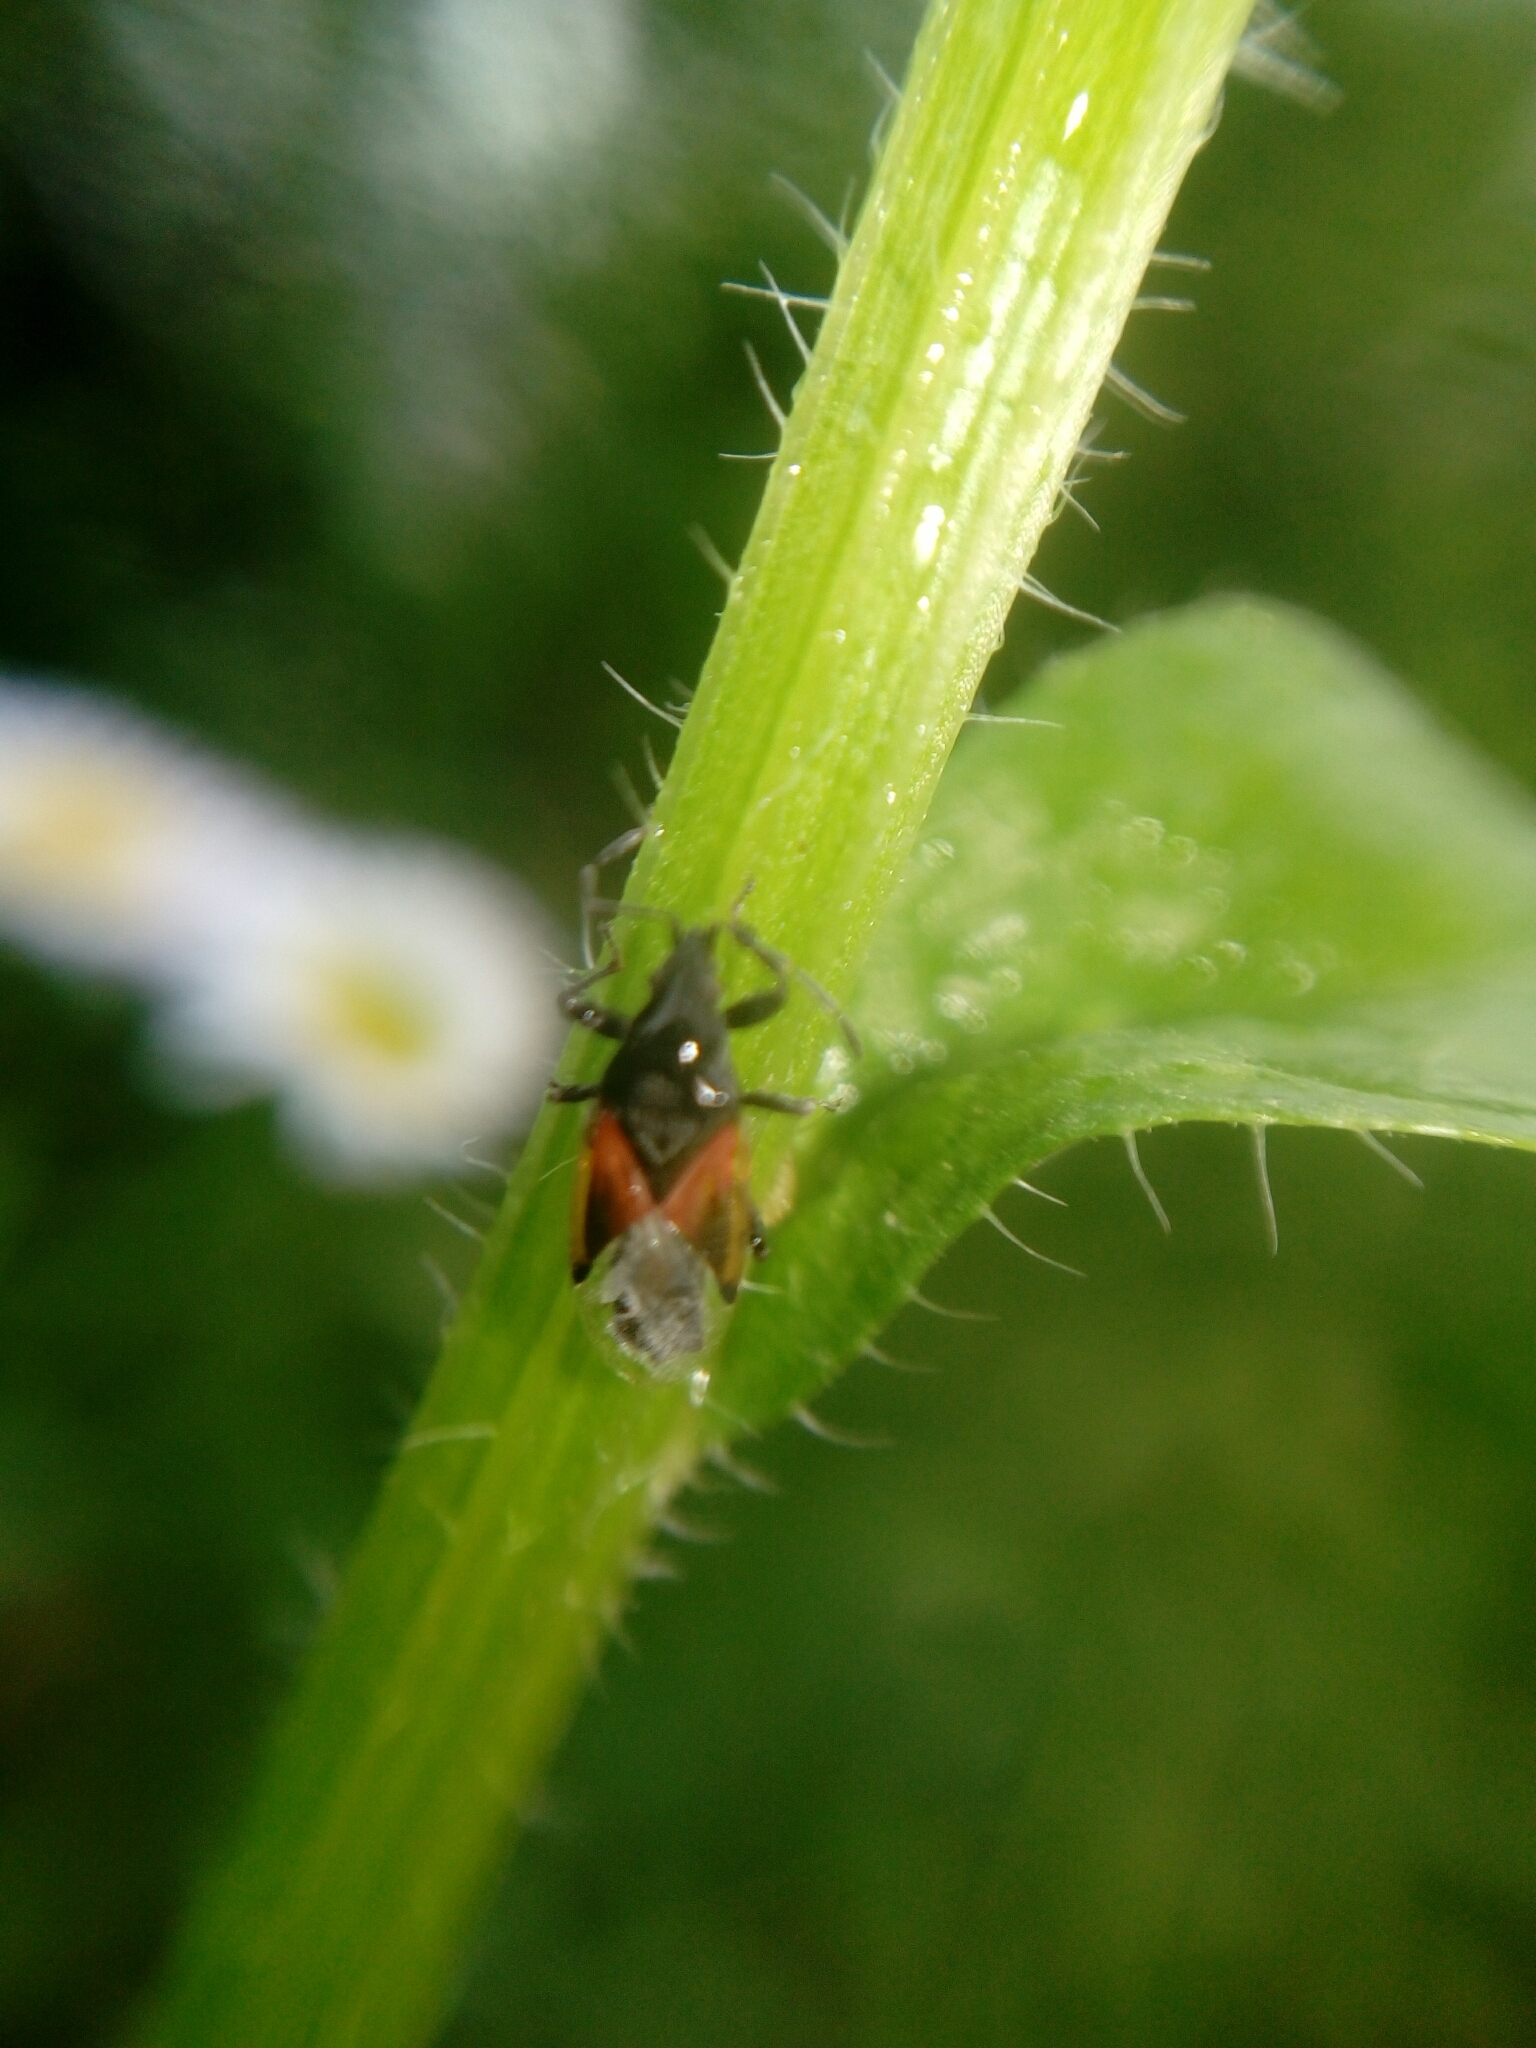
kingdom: Animalia
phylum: Arthropoda
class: Insecta
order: Hemiptera
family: Oxycarenidae
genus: Oxycarenus
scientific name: Oxycarenus lavaterae
